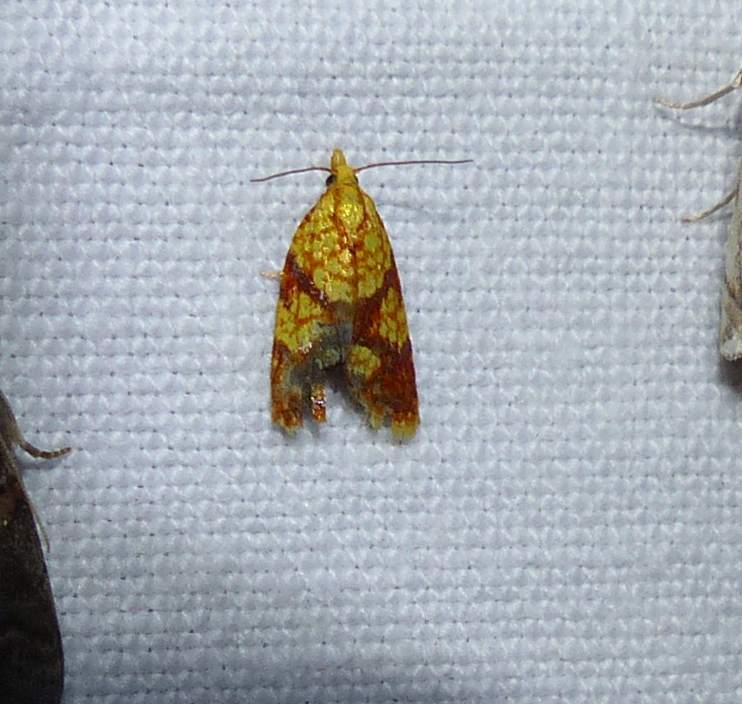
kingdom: Animalia
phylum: Arthropoda
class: Insecta
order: Lepidoptera
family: Tortricidae
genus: Sparganothis
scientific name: Sparganothis sulfureana
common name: Sparganothis fruitworm moth
